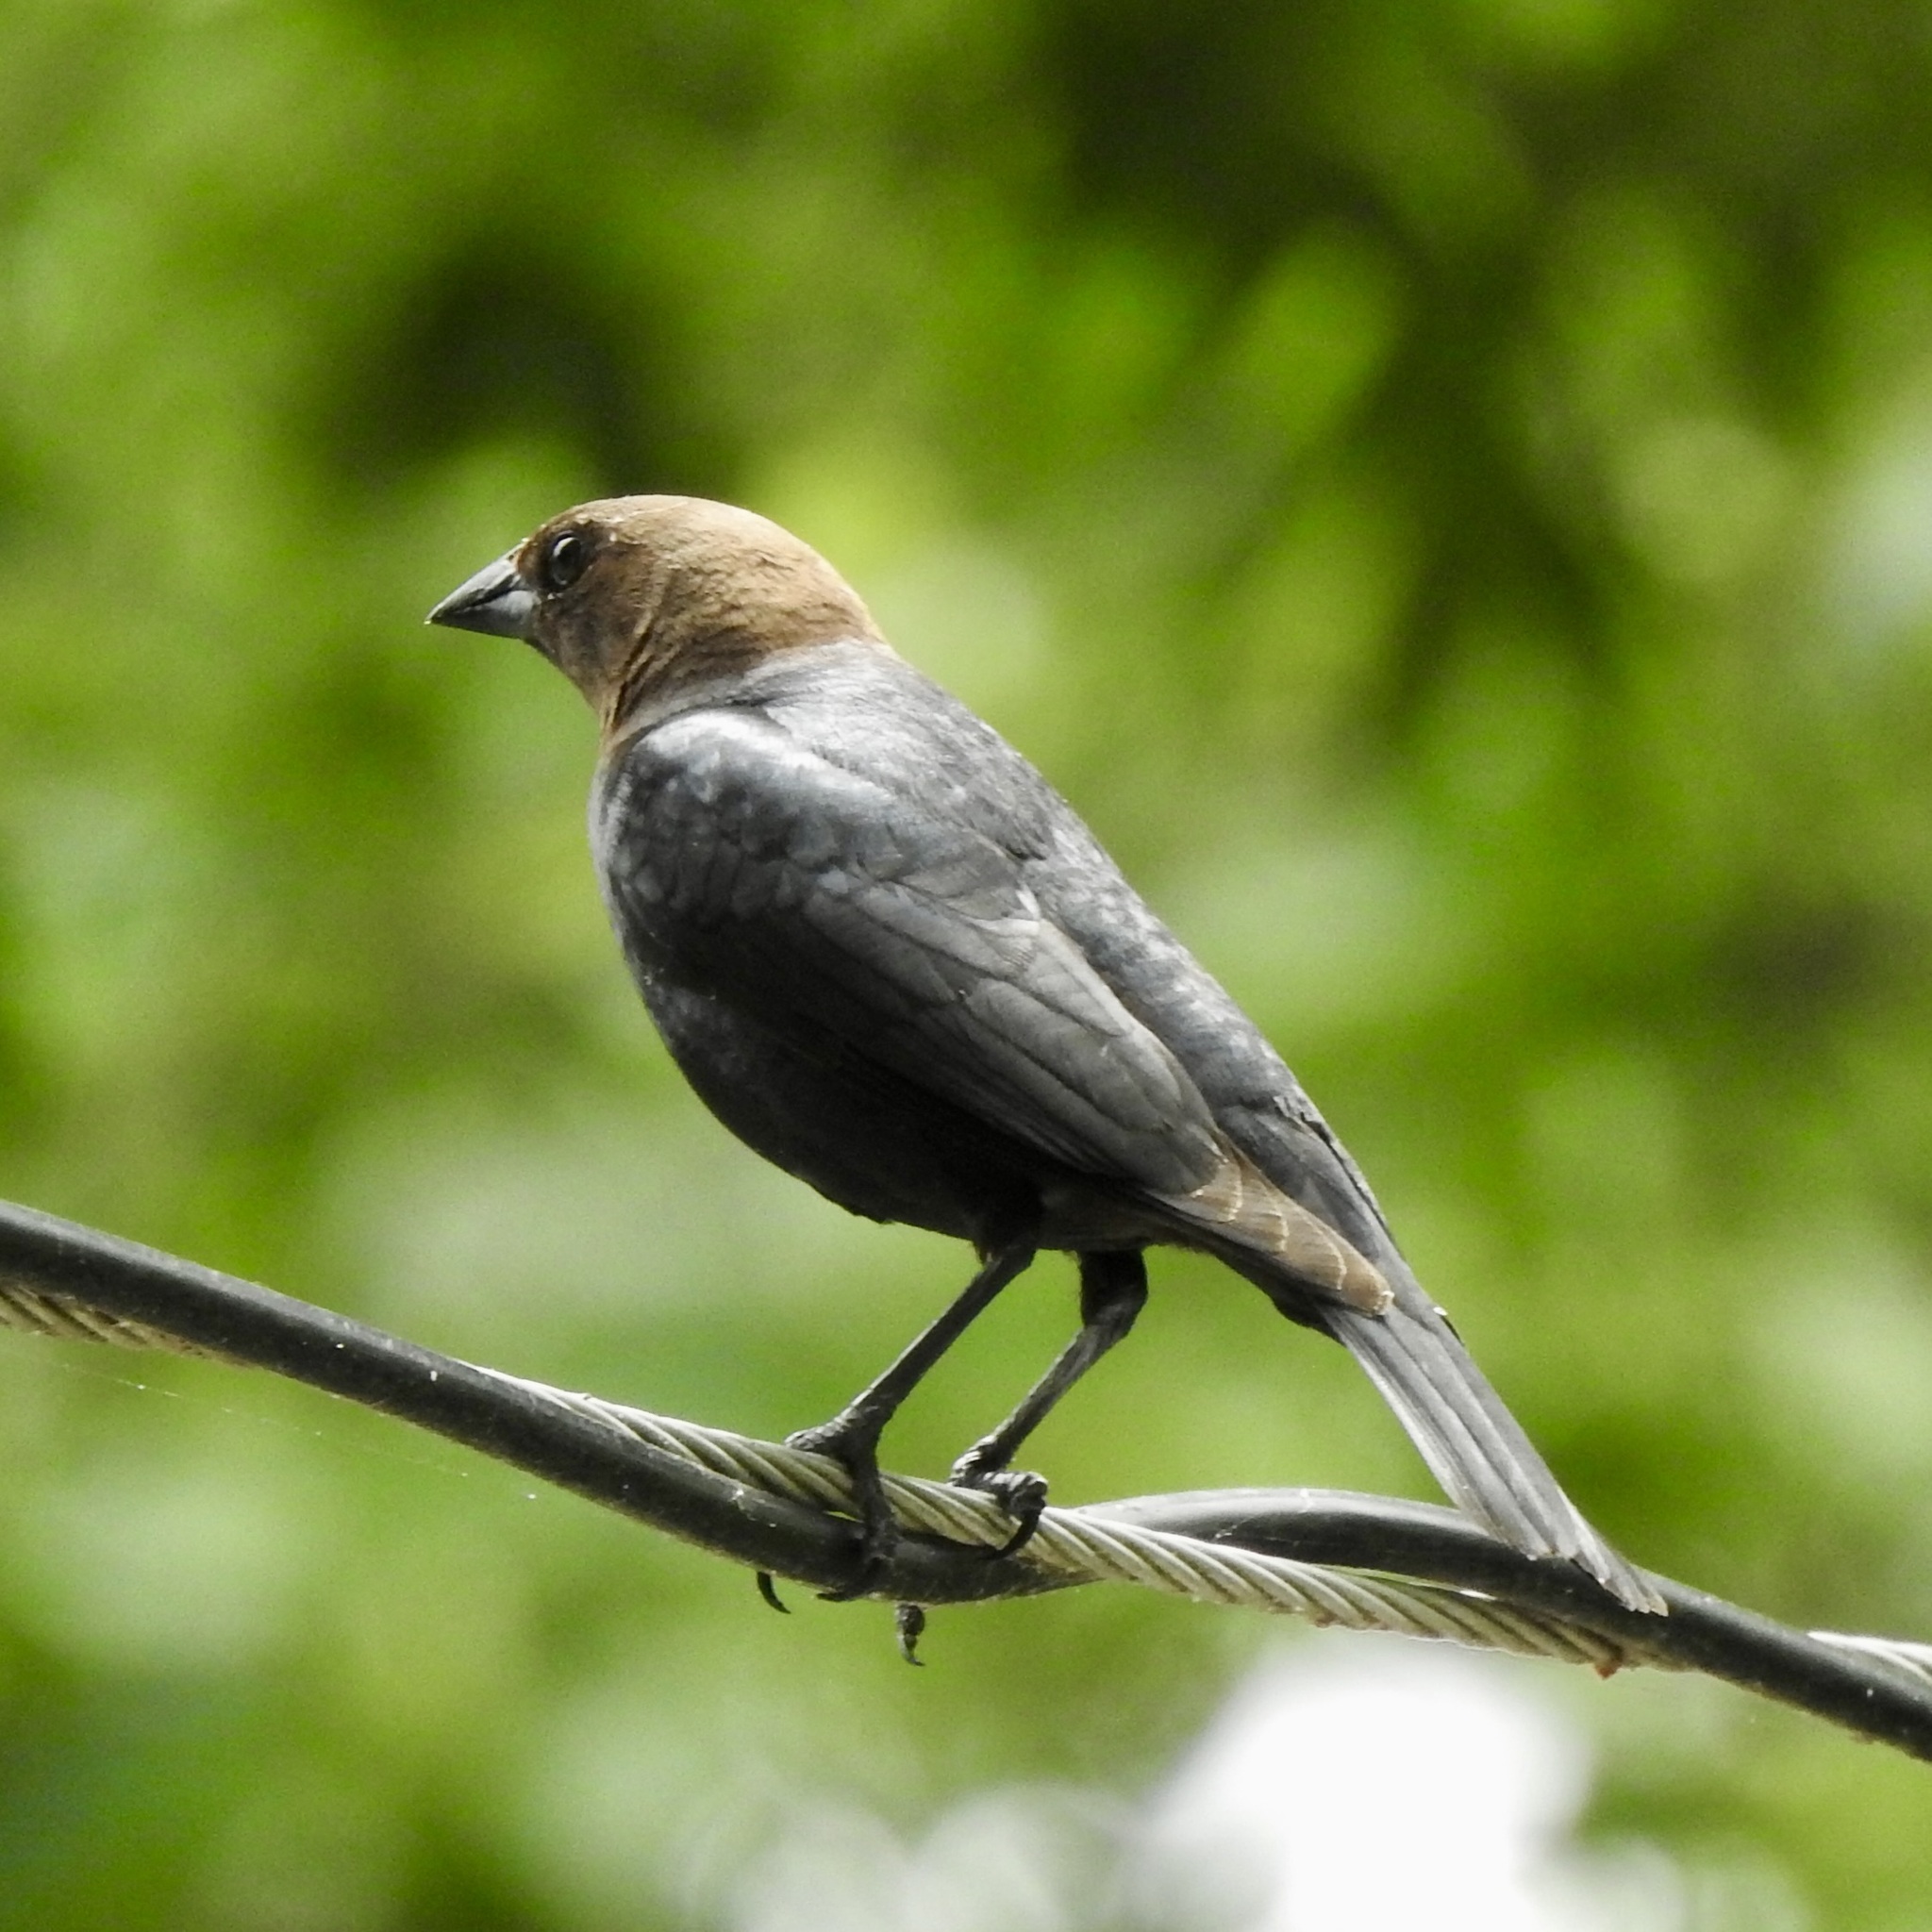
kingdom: Animalia
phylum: Chordata
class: Aves
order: Passeriformes
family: Icteridae
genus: Molothrus
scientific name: Molothrus ater
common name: Brown-headed cowbird
